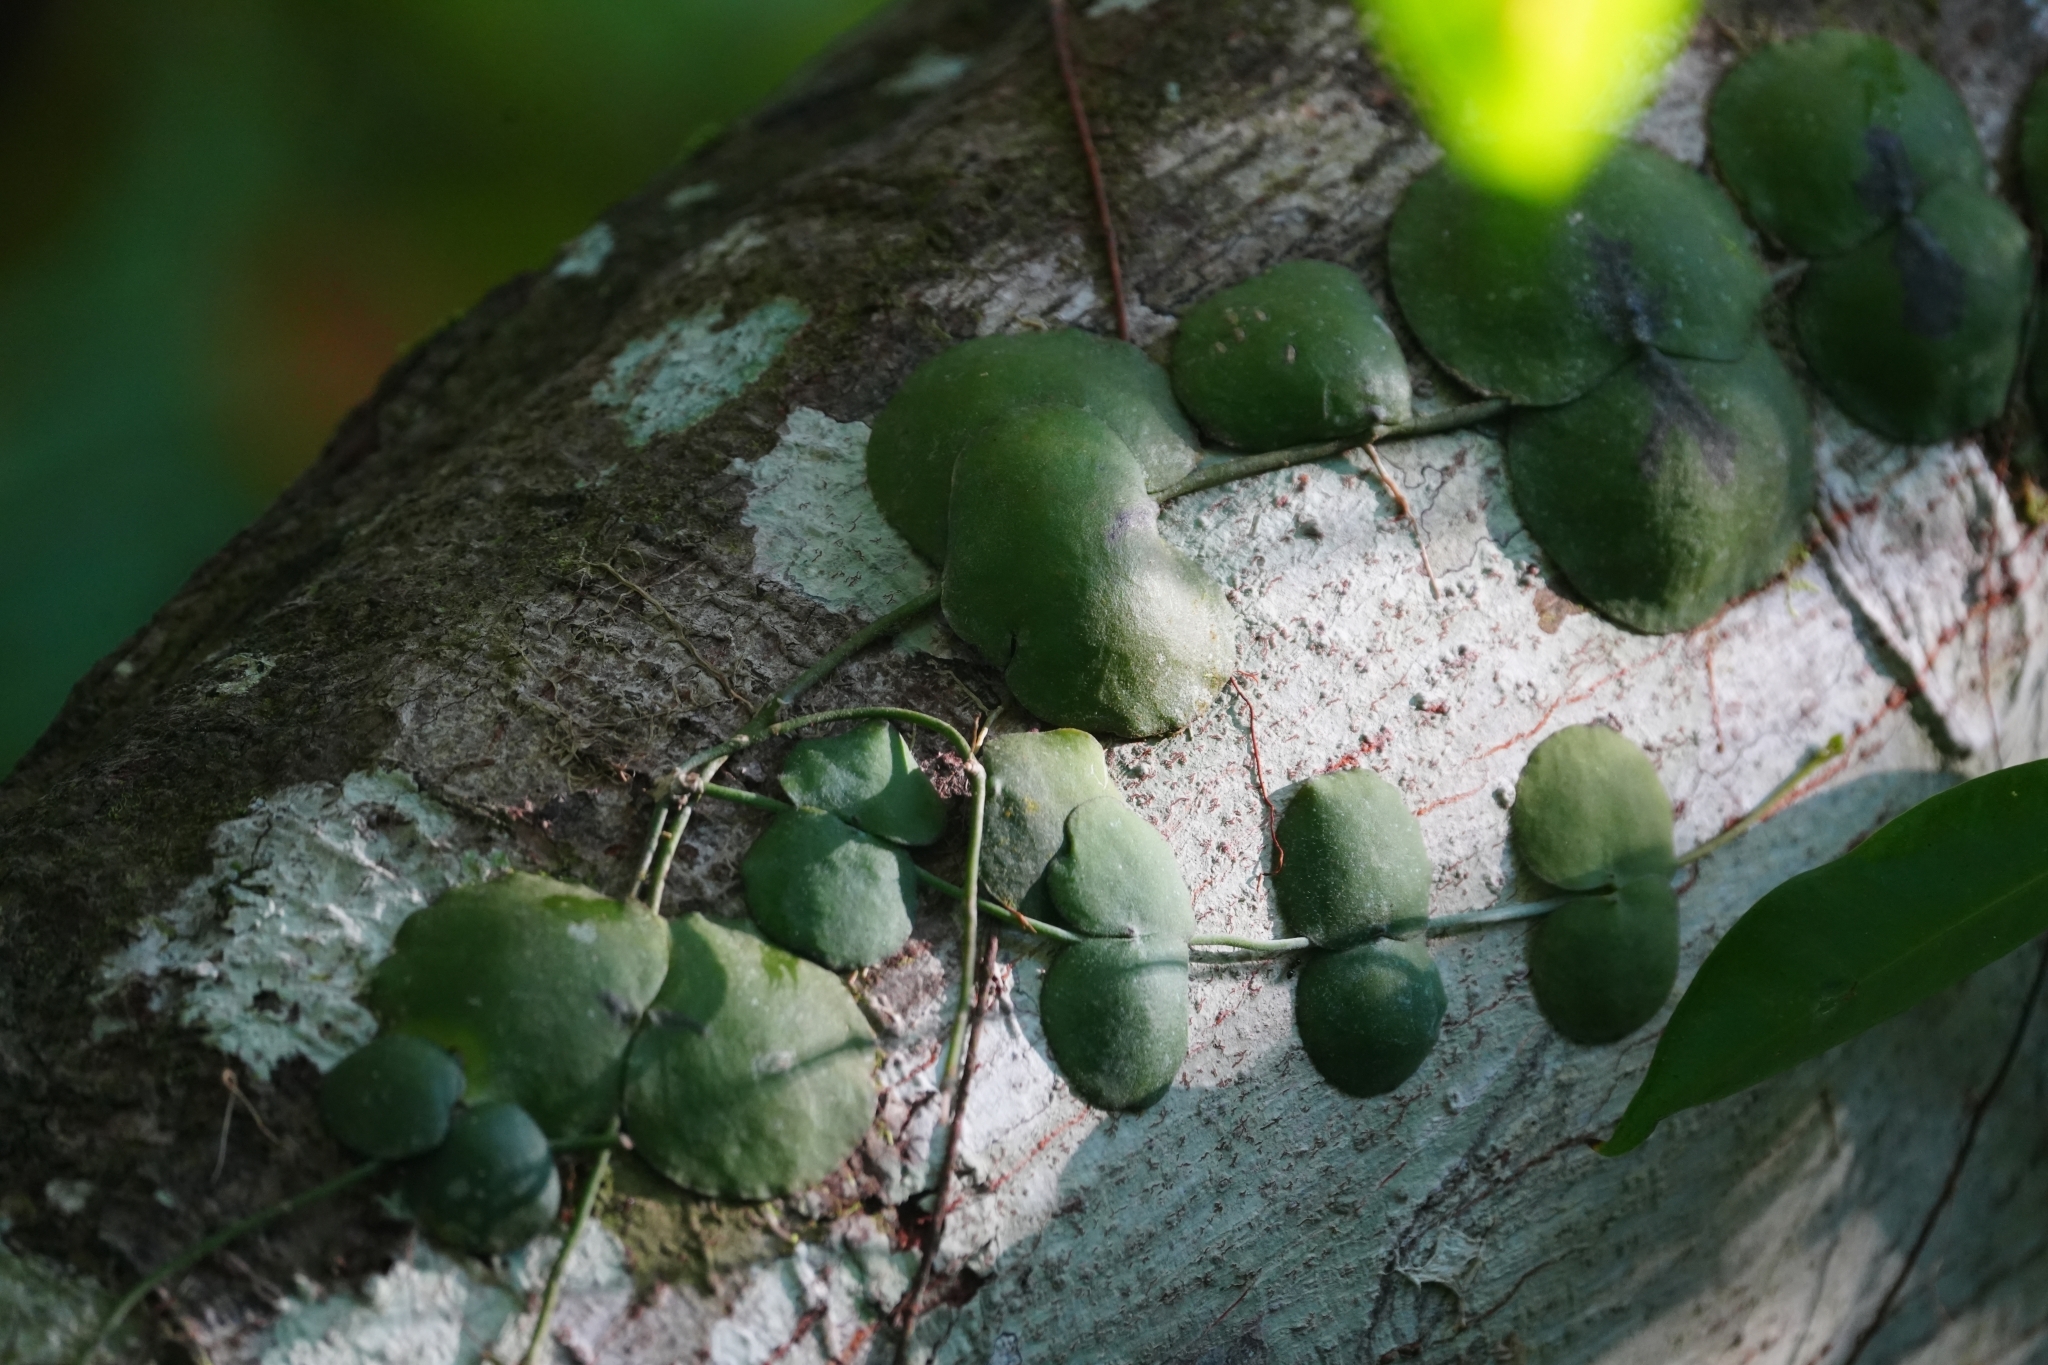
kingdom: Plantae
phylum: Tracheophyta
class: Magnoliopsida
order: Gentianales
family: Apocynaceae
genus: Dischidia
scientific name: Dischidia imbricata
